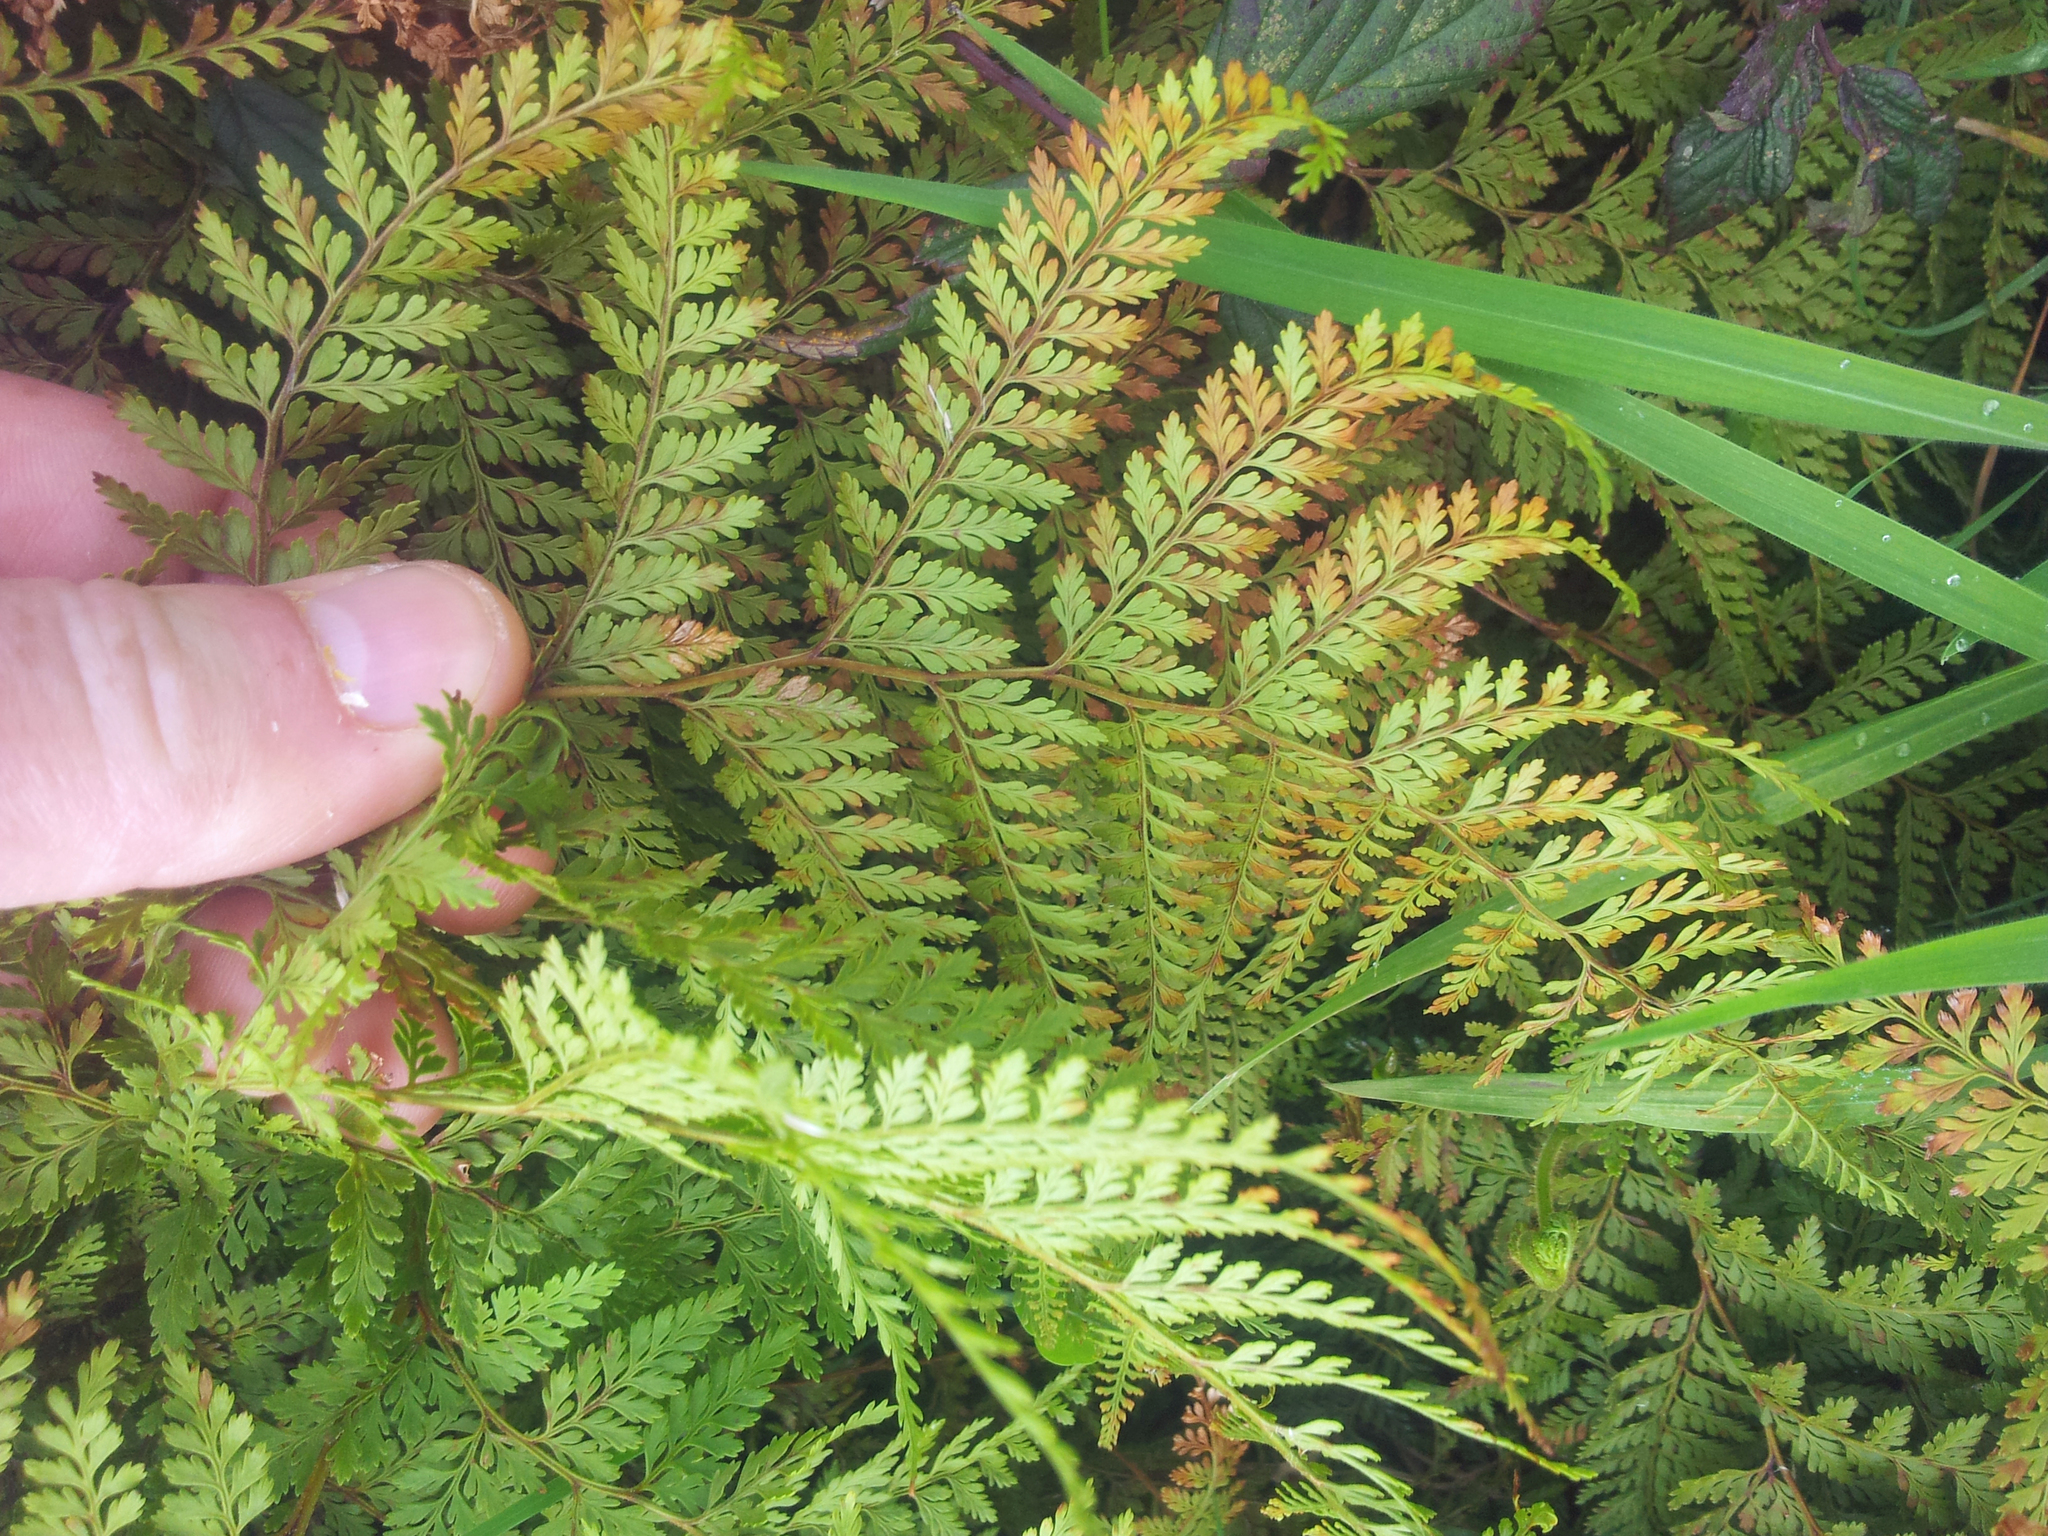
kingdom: Plantae
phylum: Tracheophyta
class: Polypodiopsida
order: Polypodiales
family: Dennstaedtiaceae
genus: Paesia
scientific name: Paesia scaberula
